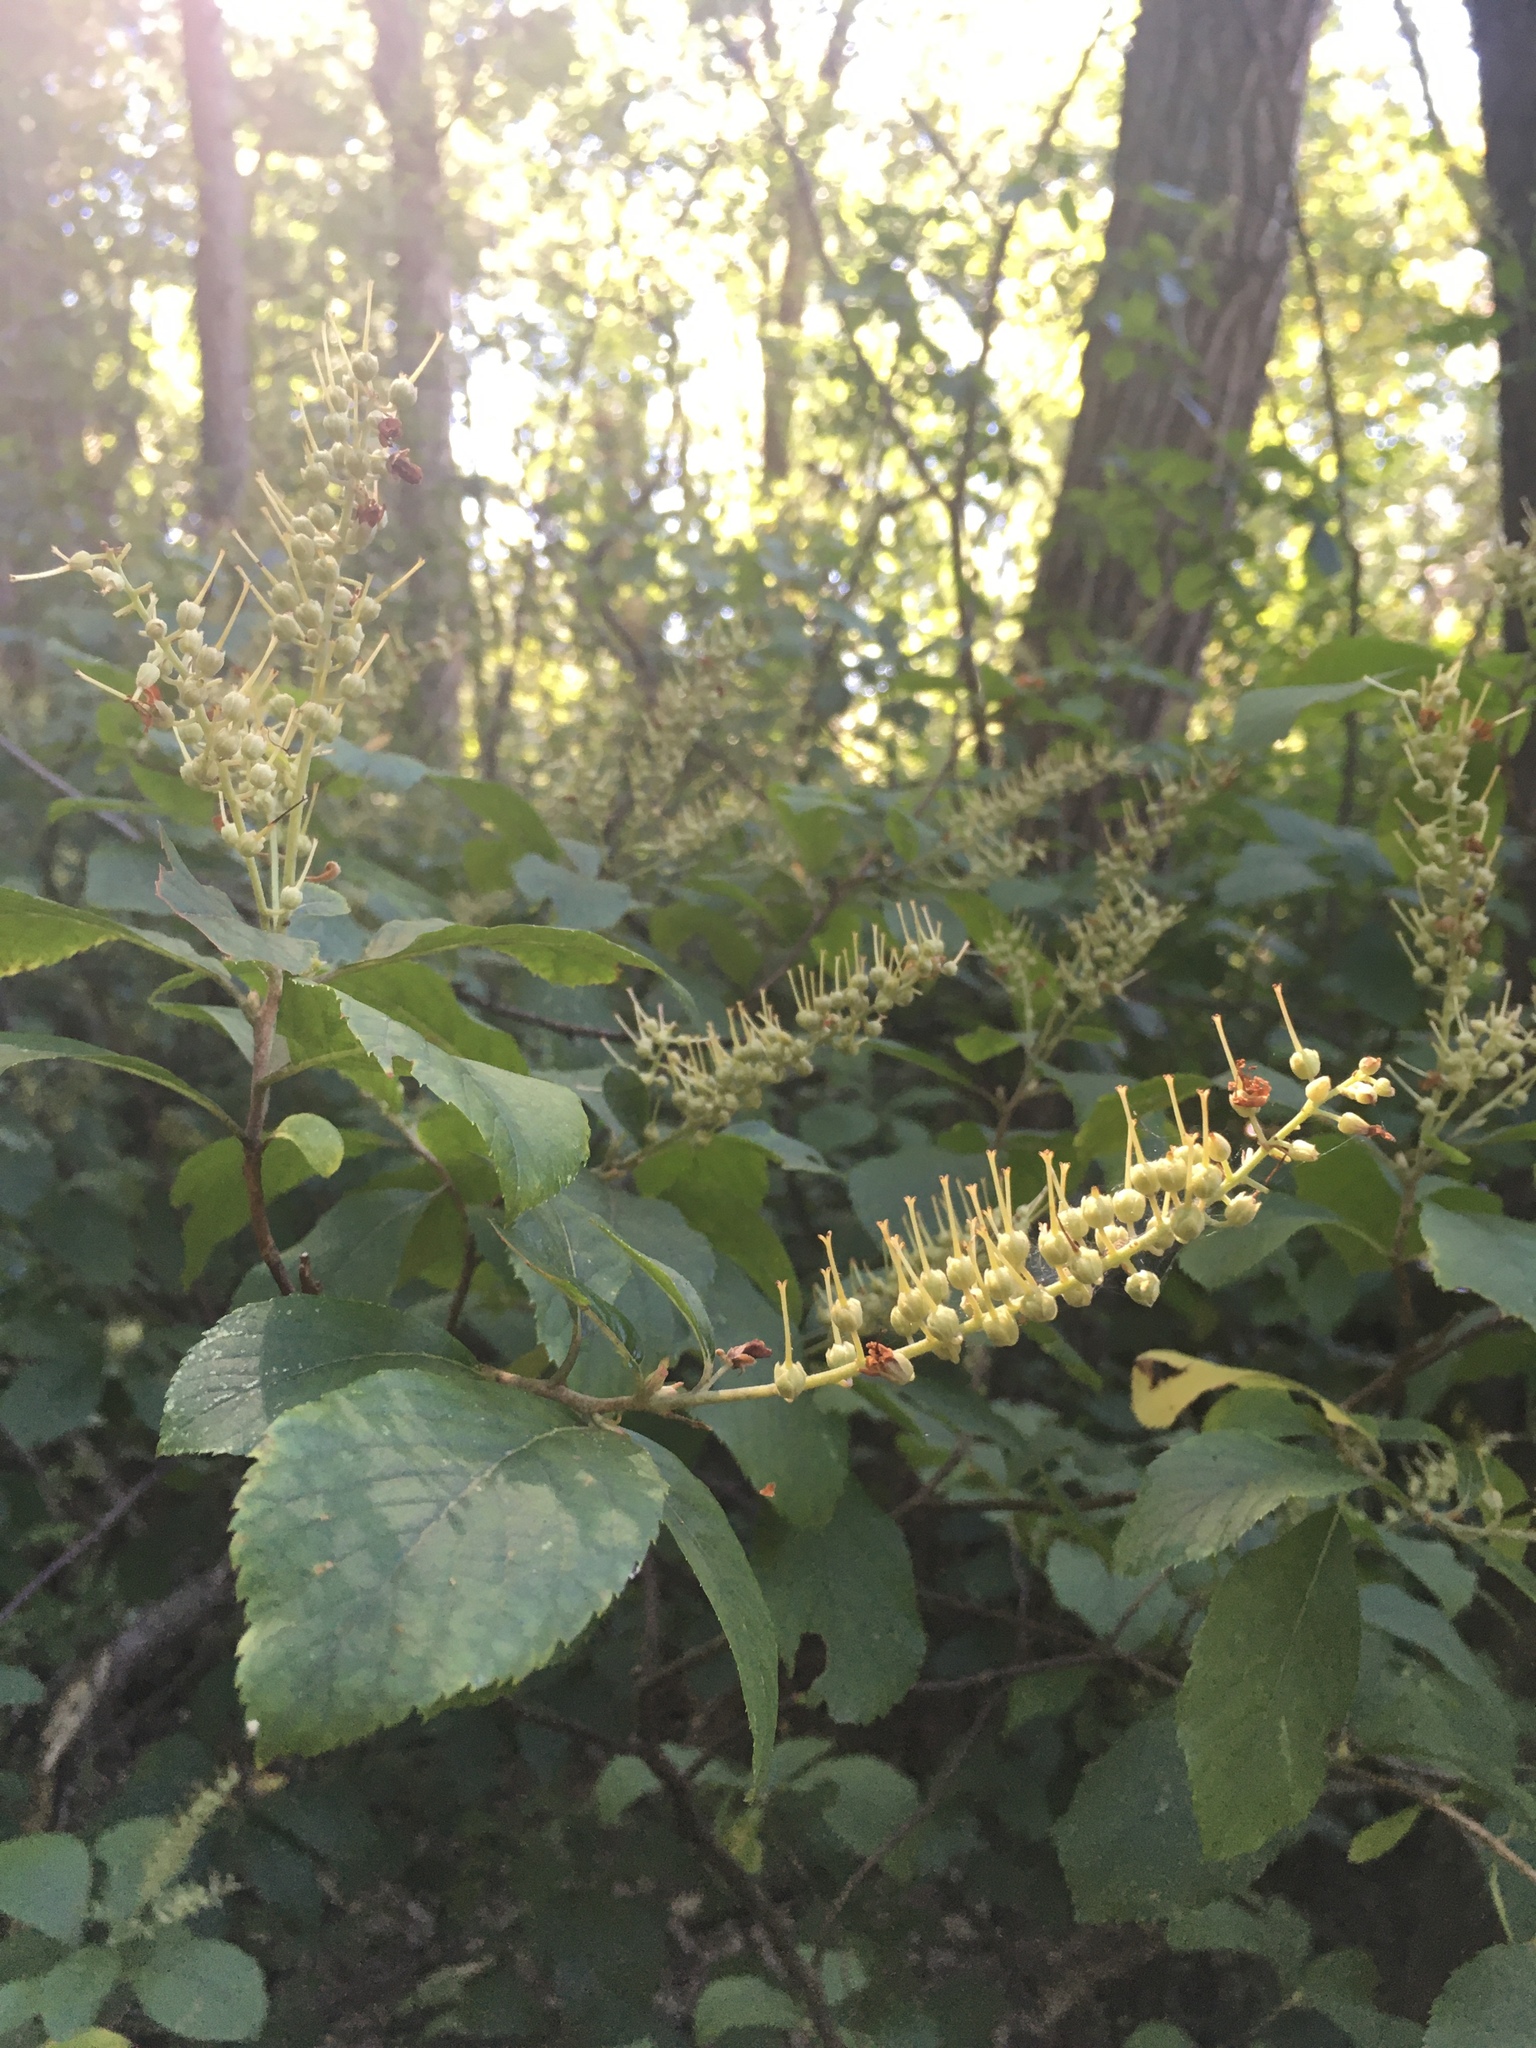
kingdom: Plantae
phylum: Tracheophyta
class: Magnoliopsida
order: Ericales
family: Clethraceae
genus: Clethra
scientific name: Clethra alnifolia
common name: Sweet pepperbush
